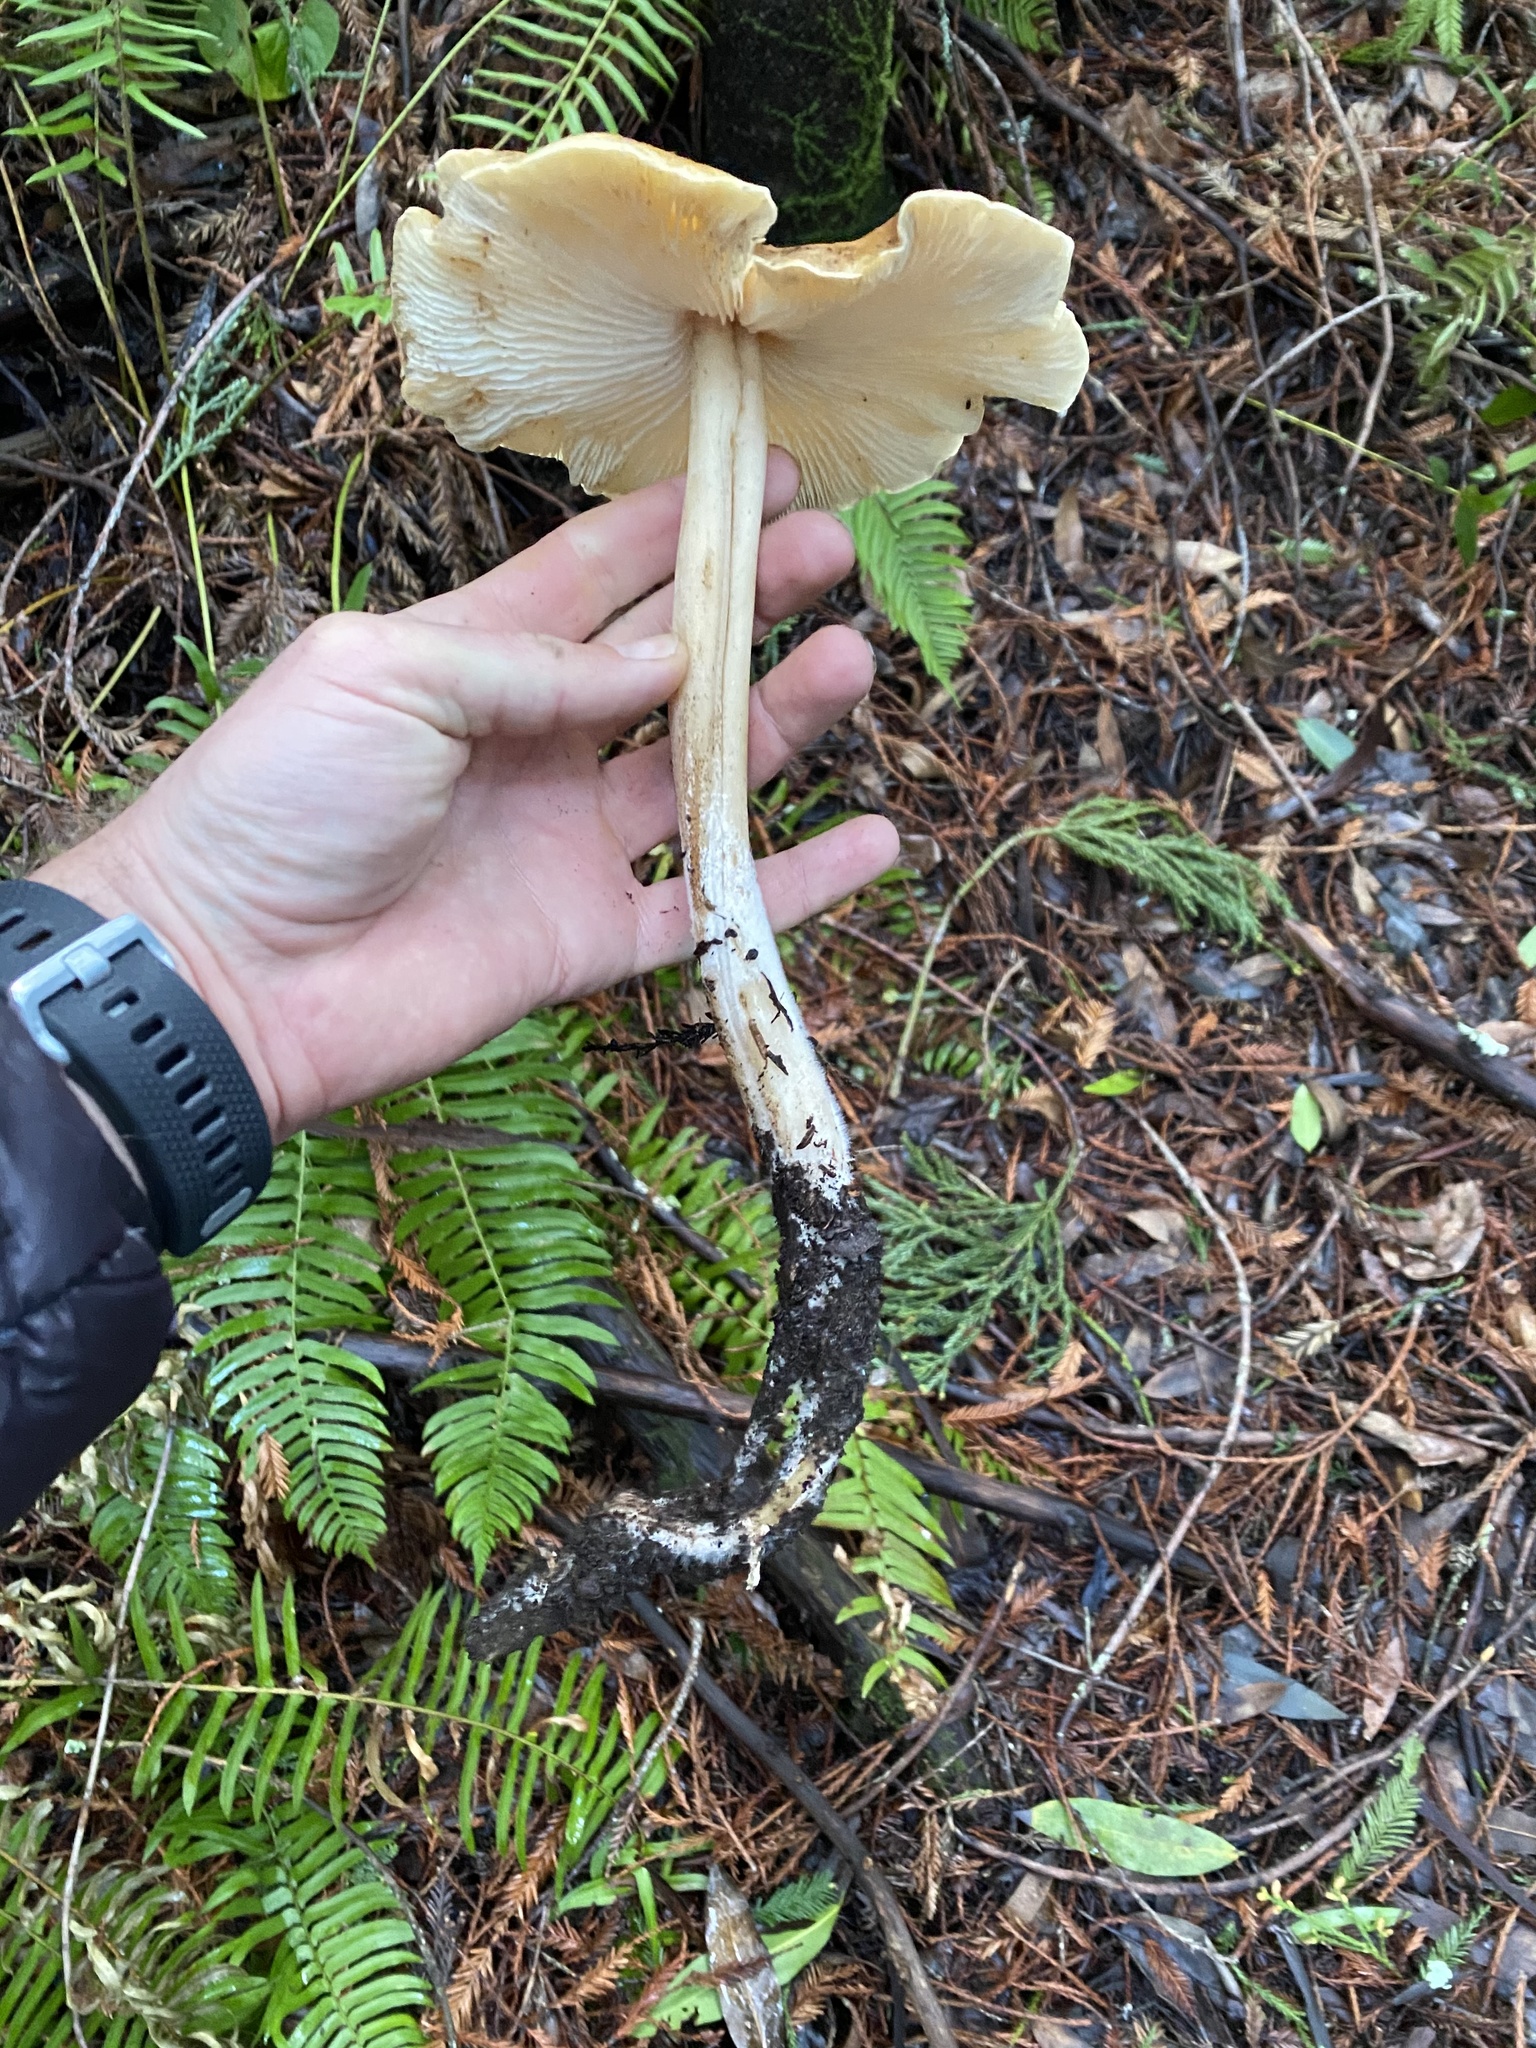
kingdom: Fungi
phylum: Basidiomycota
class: Agaricomycetes
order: Agaricales
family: Tricholomataceae
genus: Caulorhiza
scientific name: Caulorhiza umbonata
